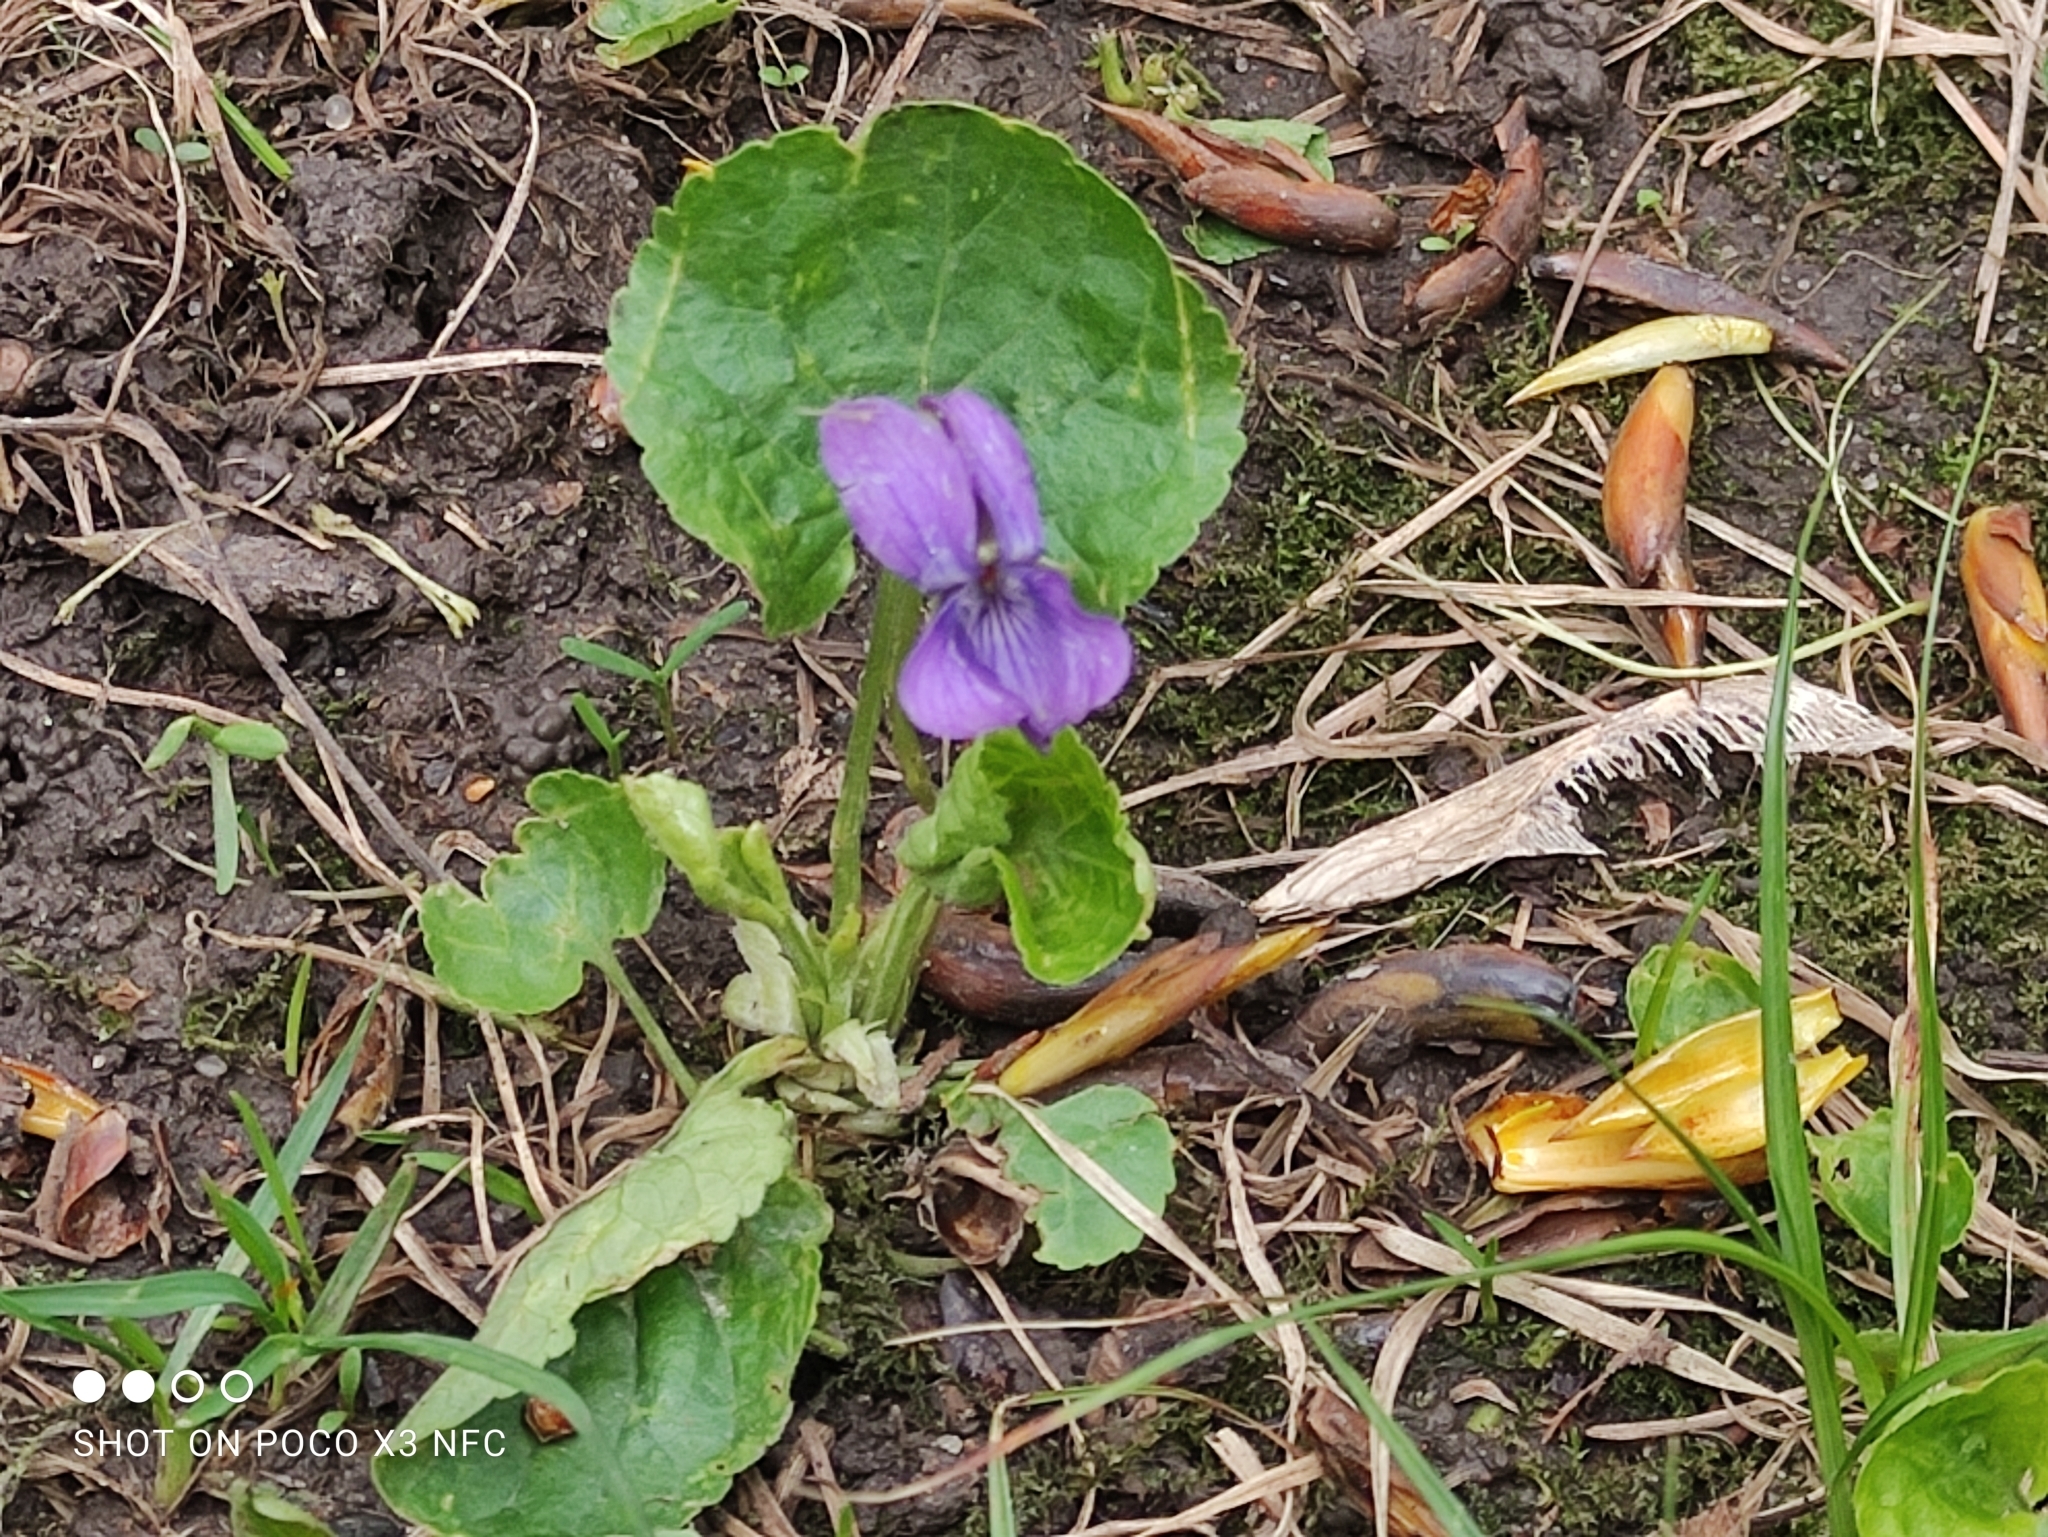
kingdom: Plantae
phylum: Tracheophyta
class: Magnoliopsida
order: Malpighiales
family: Violaceae
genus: Viola
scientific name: Viola odorata
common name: Sweet violet
